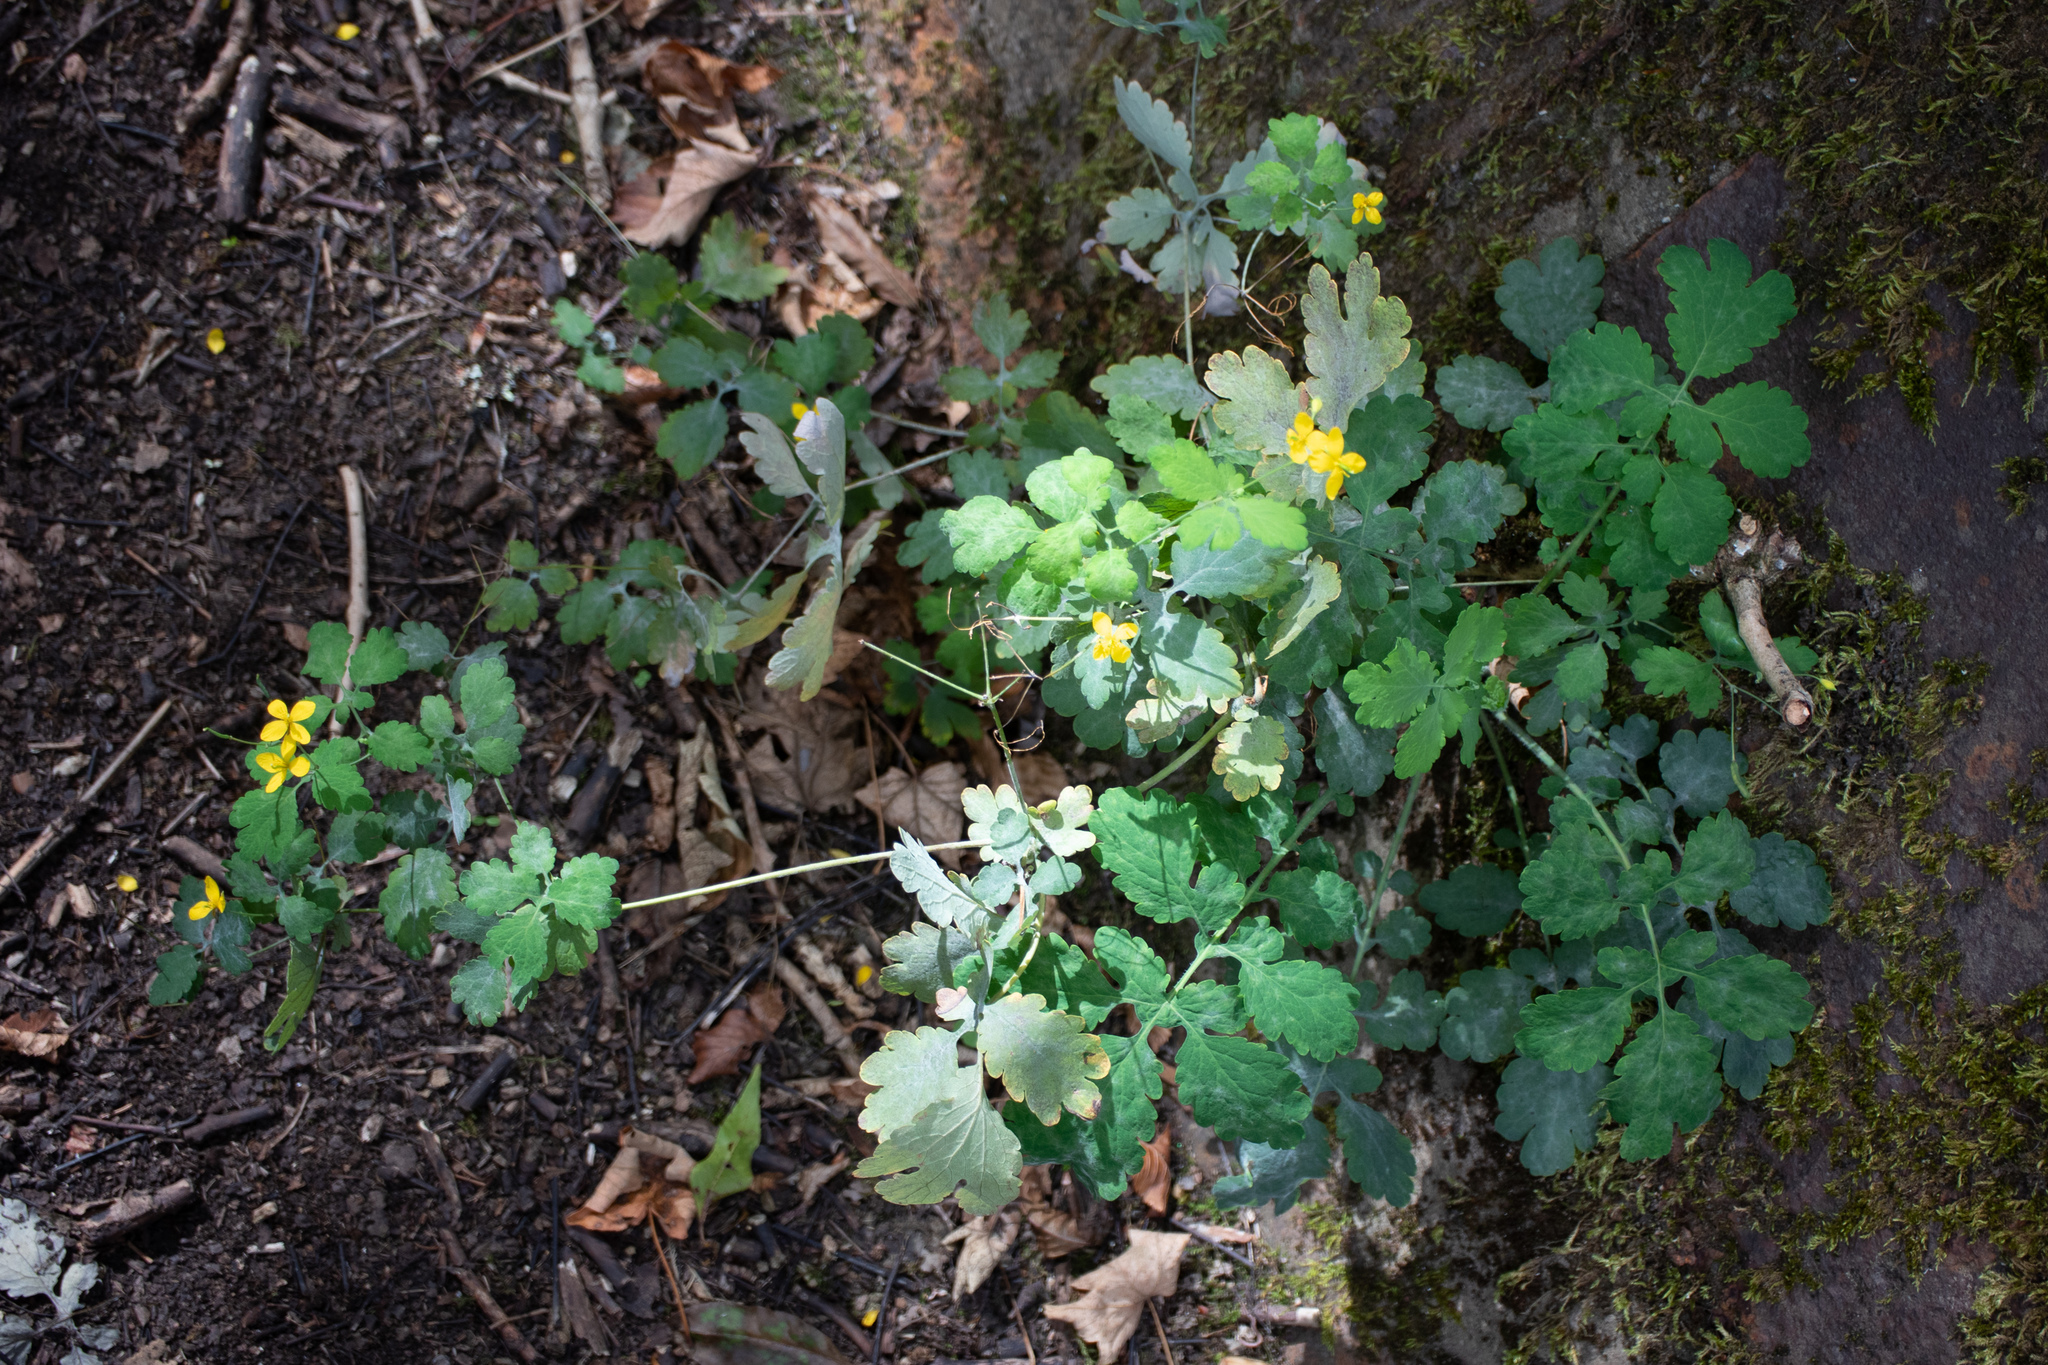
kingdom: Plantae
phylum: Tracheophyta
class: Magnoliopsida
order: Ranunculales
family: Papaveraceae
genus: Chelidonium
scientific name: Chelidonium majus
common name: Greater celandine
